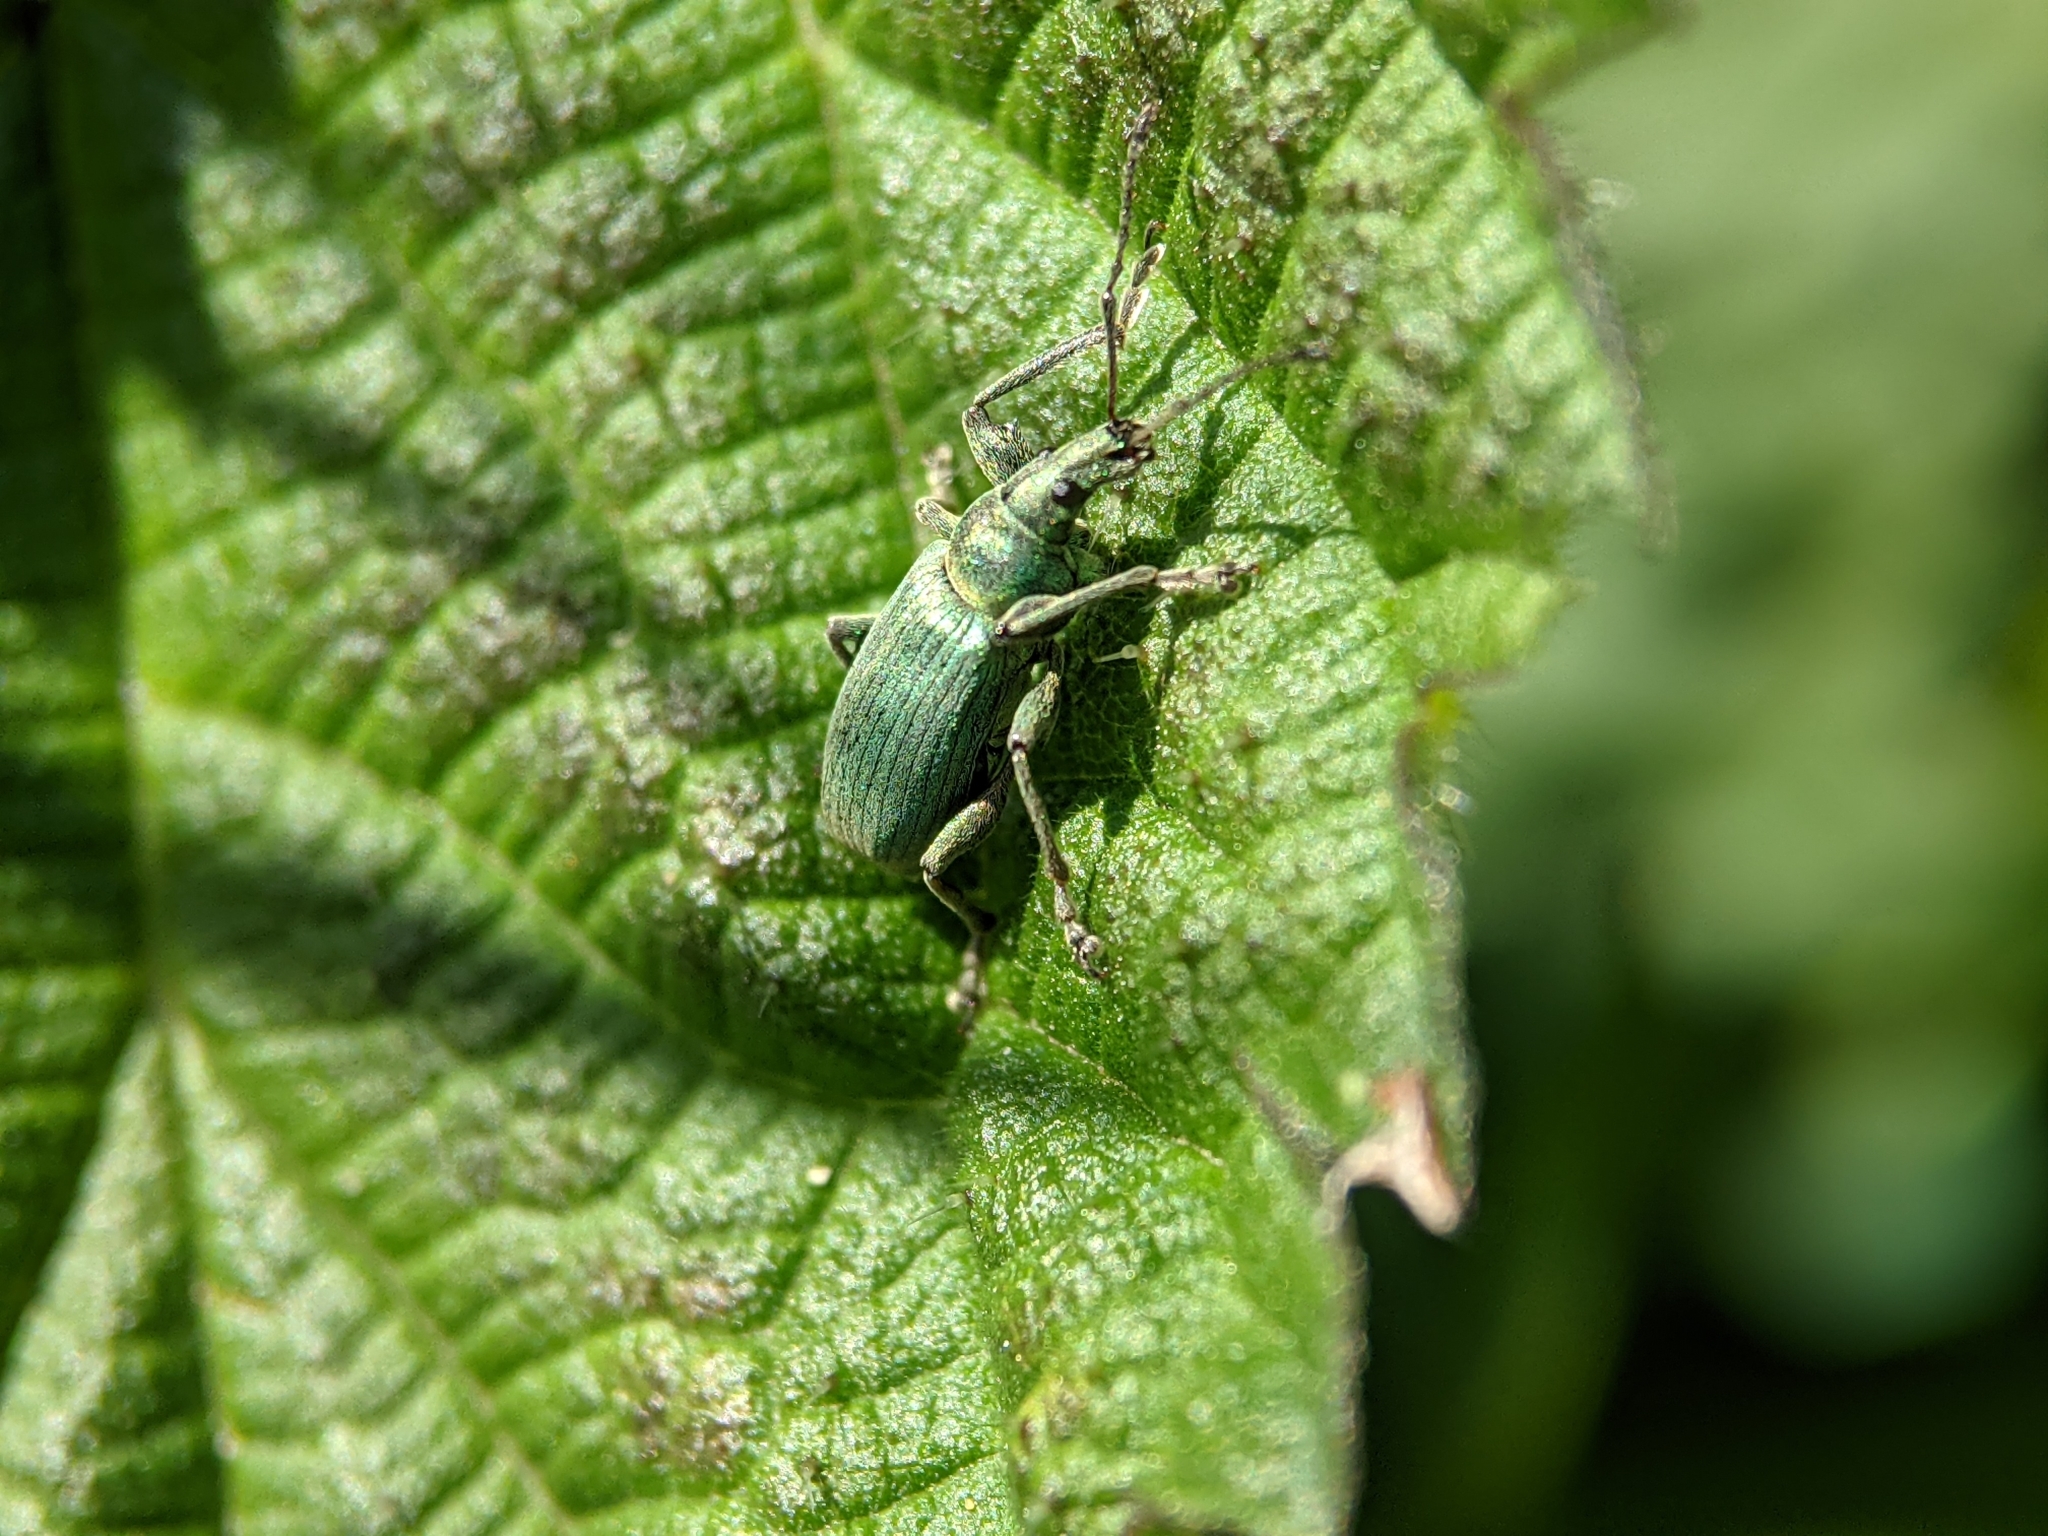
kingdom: Animalia
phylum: Arthropoda
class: Insecta
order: Coleoptera
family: Curculionidae
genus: Phyllobius
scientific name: Phyllobius pomaceus
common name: Green nettle weevil
